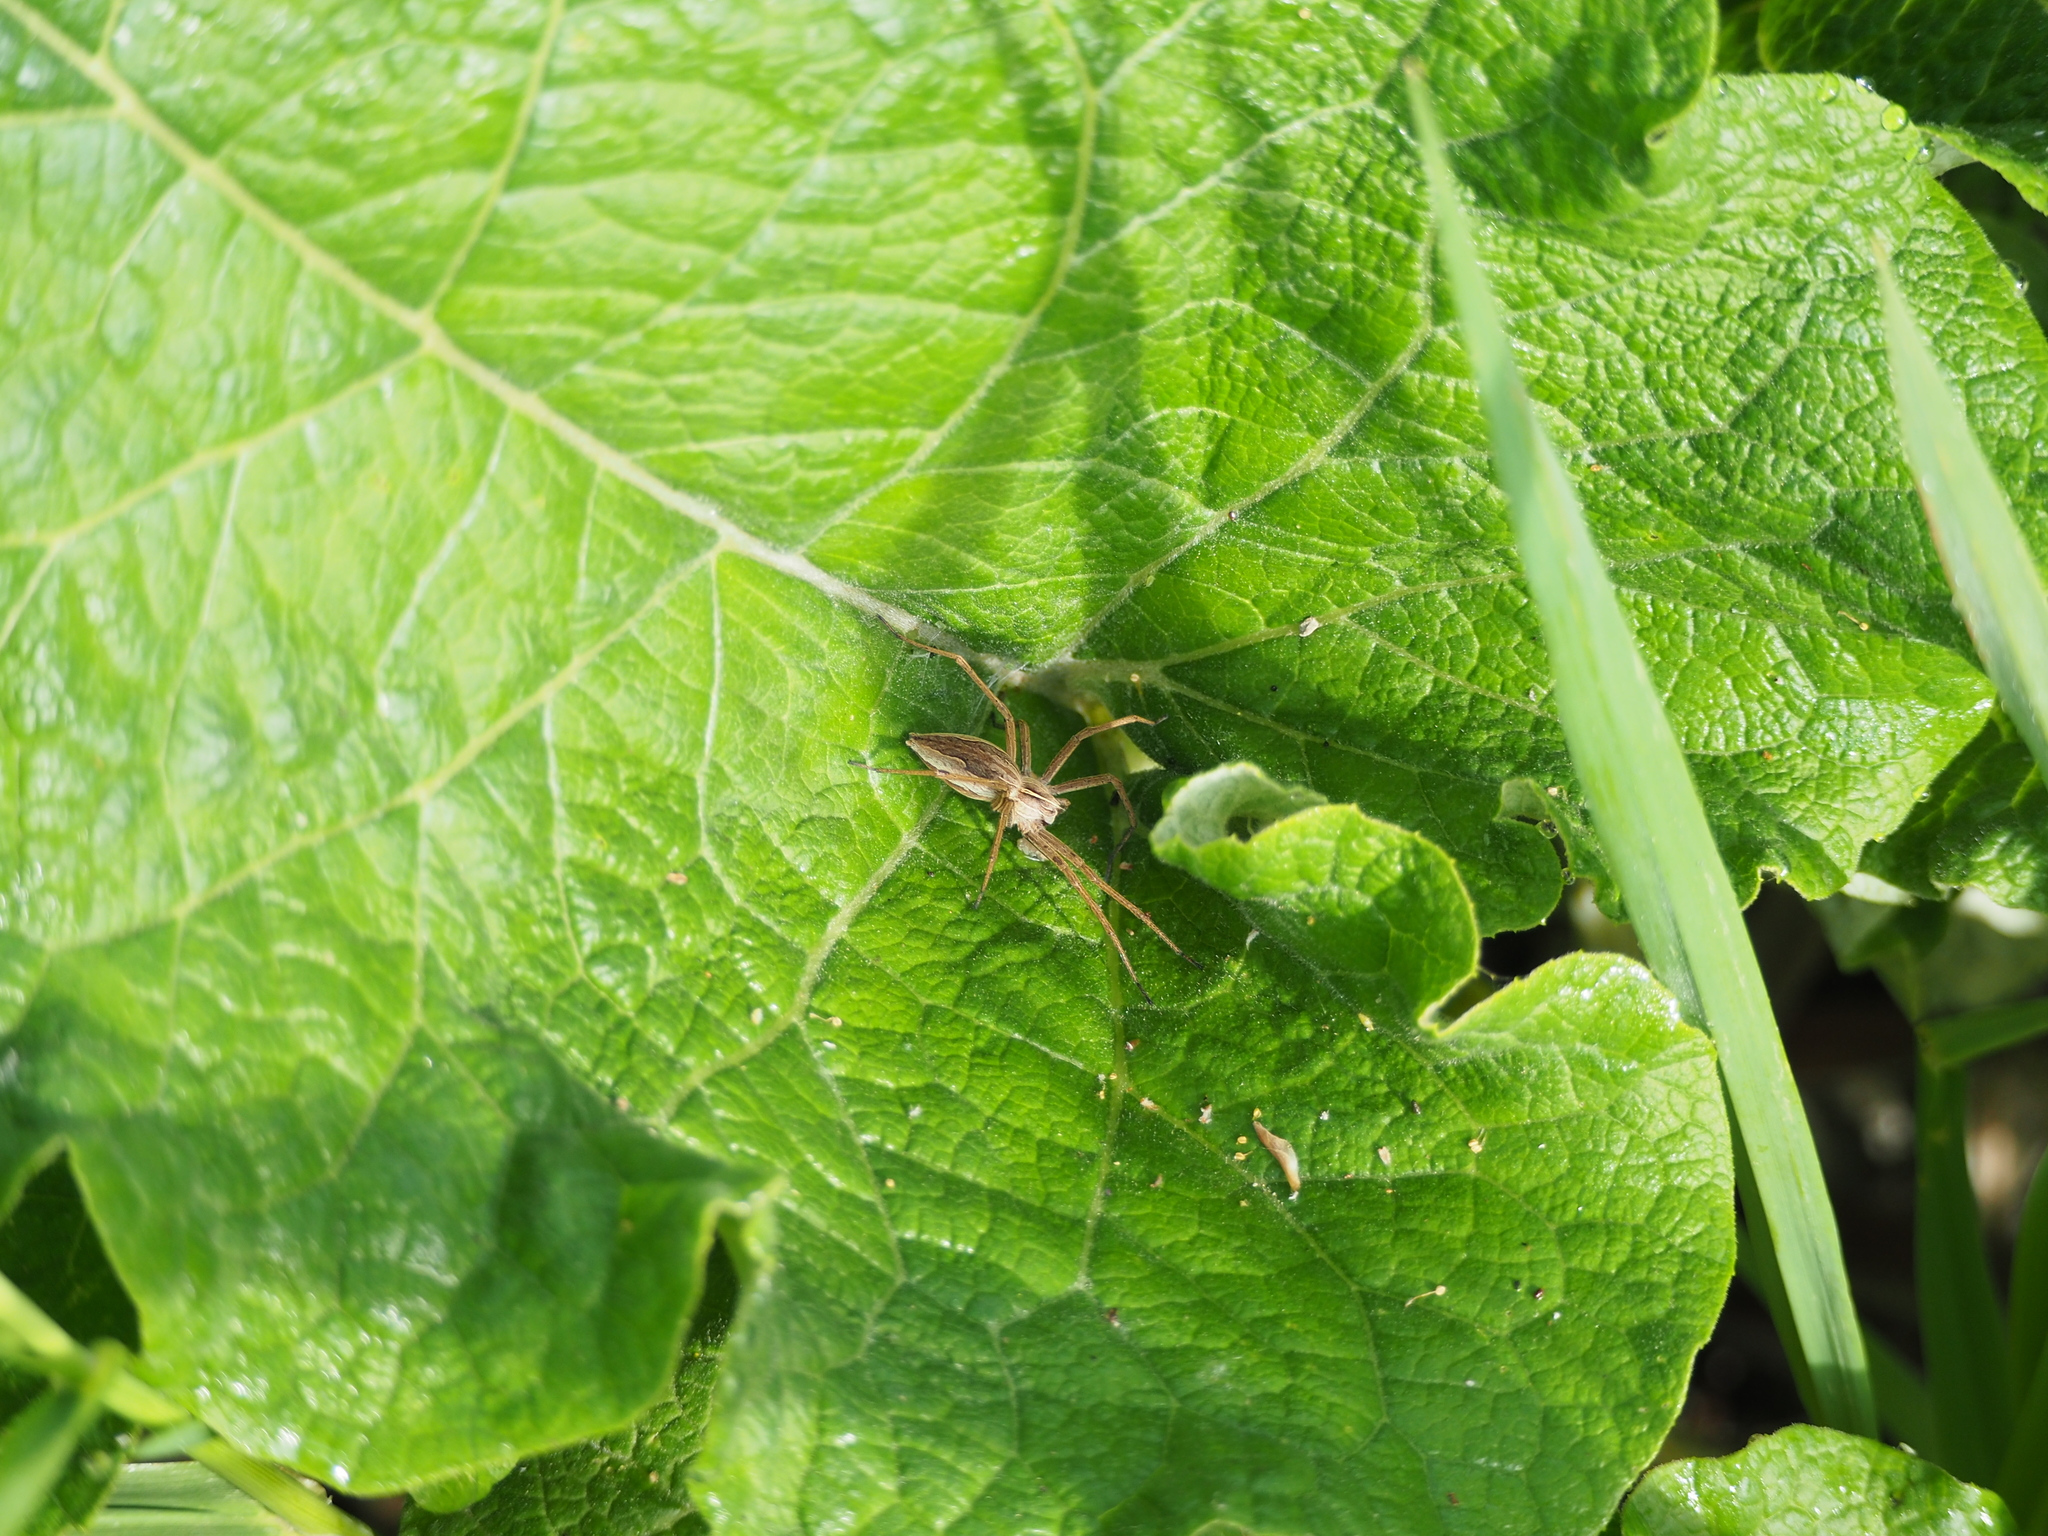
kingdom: Animalia
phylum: Arthropoda
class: Arachnida
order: Araneae
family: Pisauridae
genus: Pisaura
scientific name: Pisaura mirabilis
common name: Tent spider
